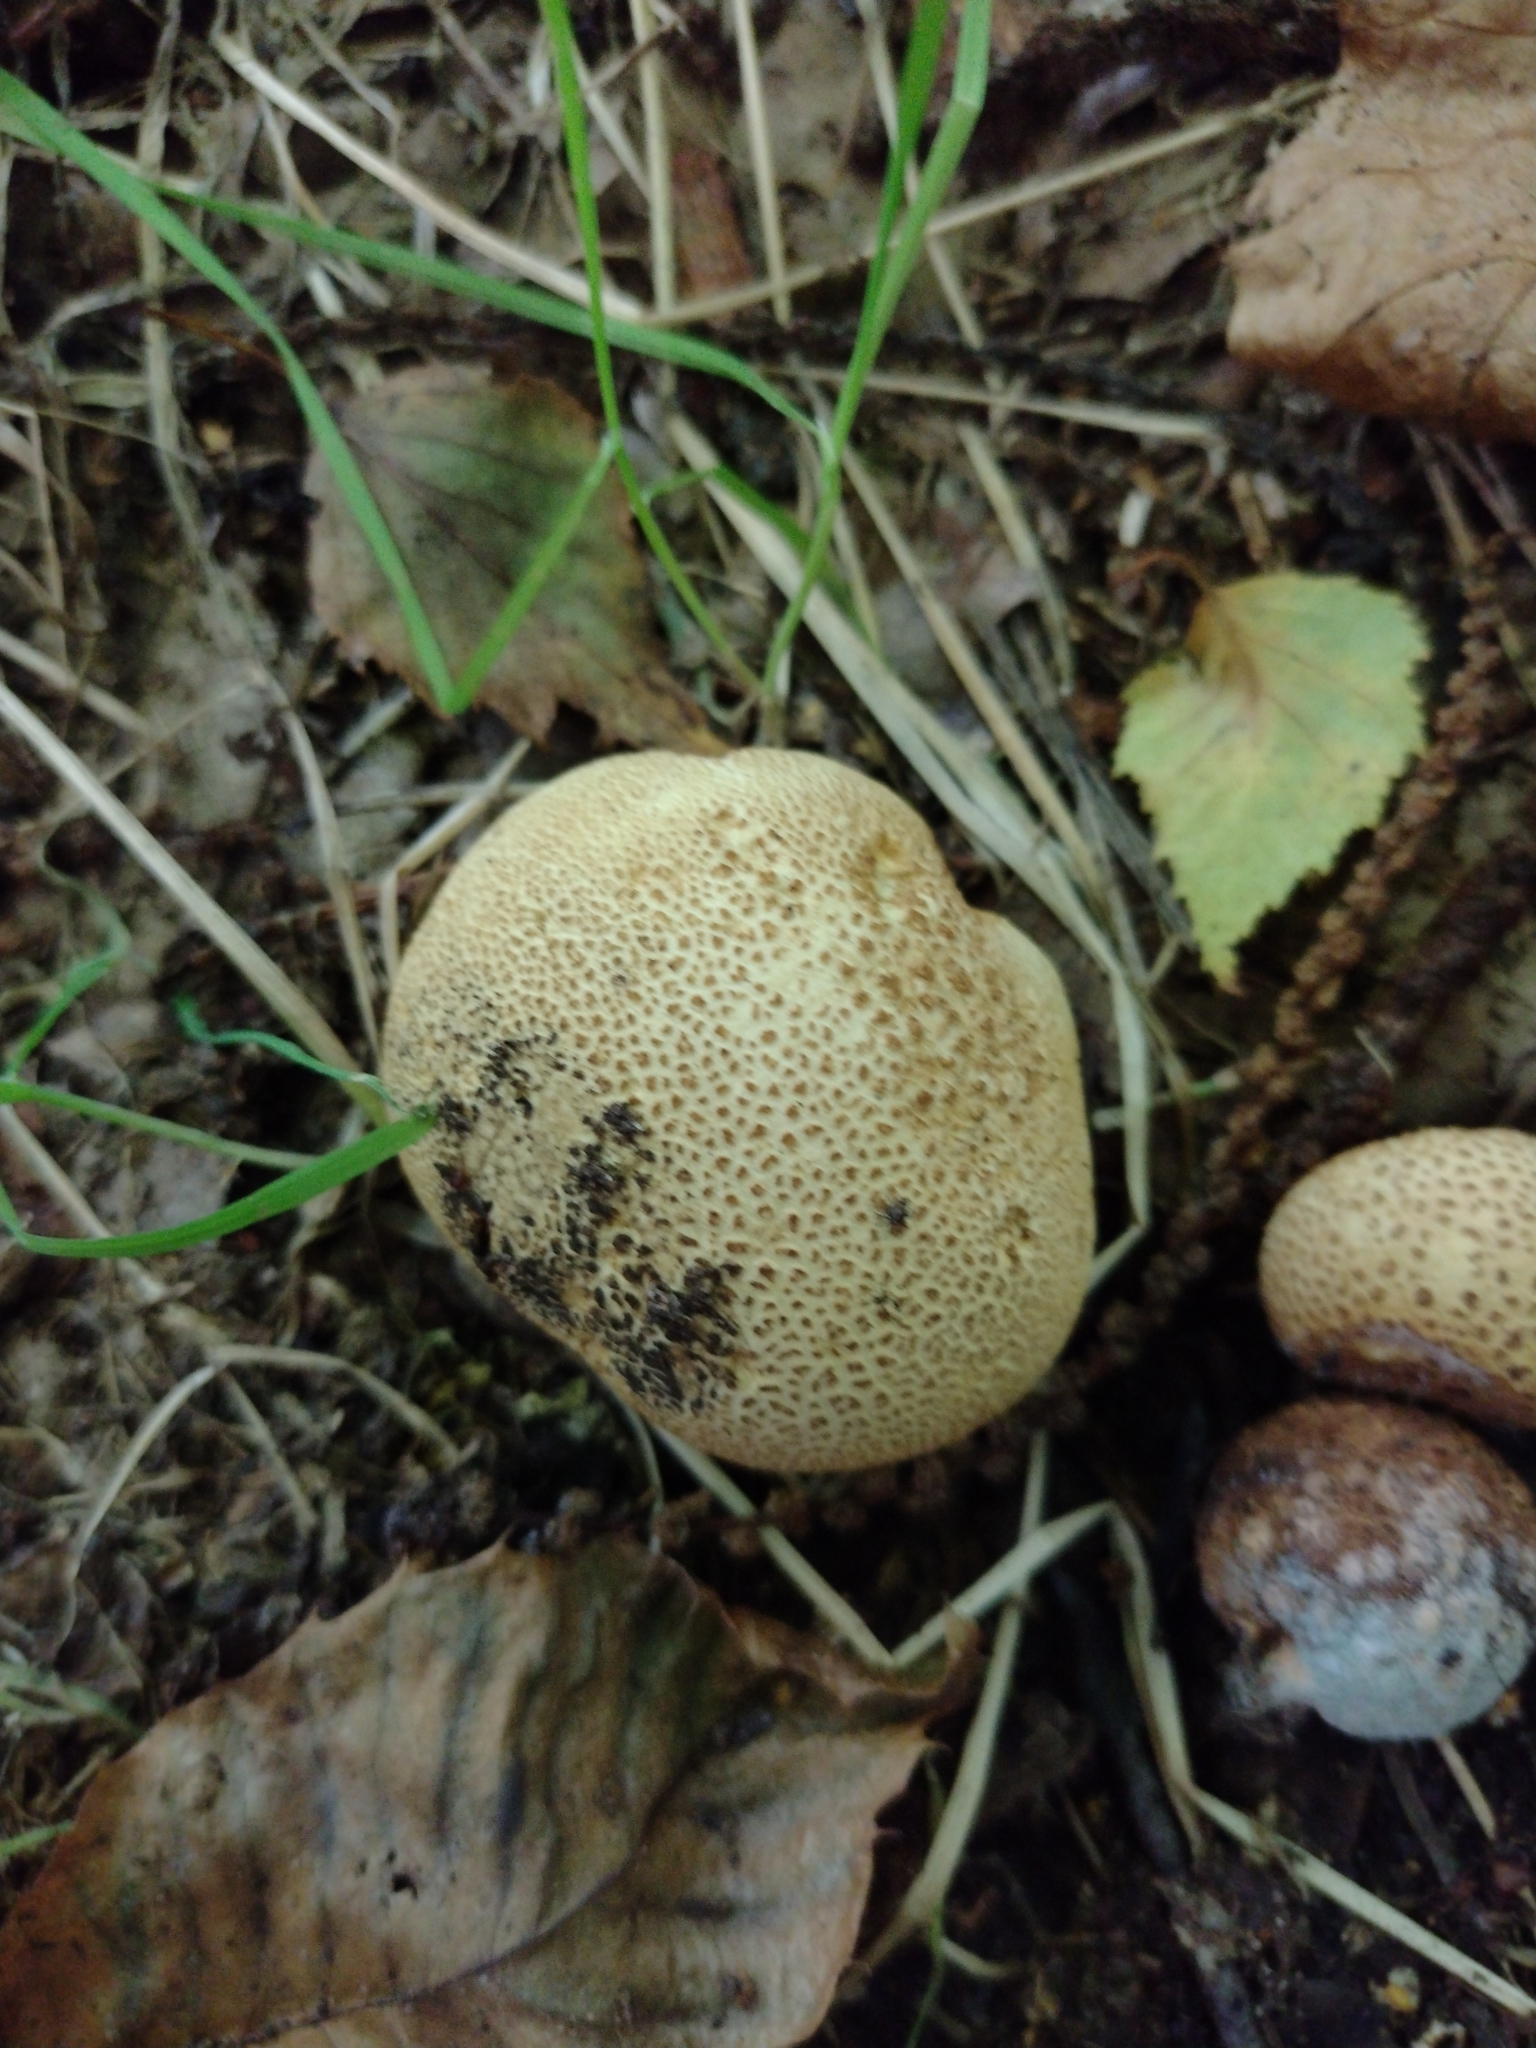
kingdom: Fungi
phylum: Basidiomycota
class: Agaricomycetes
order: Boletales
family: Sclerodermataceae
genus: Scleroderma
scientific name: Scleroderma citrinum
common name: Common earthball
